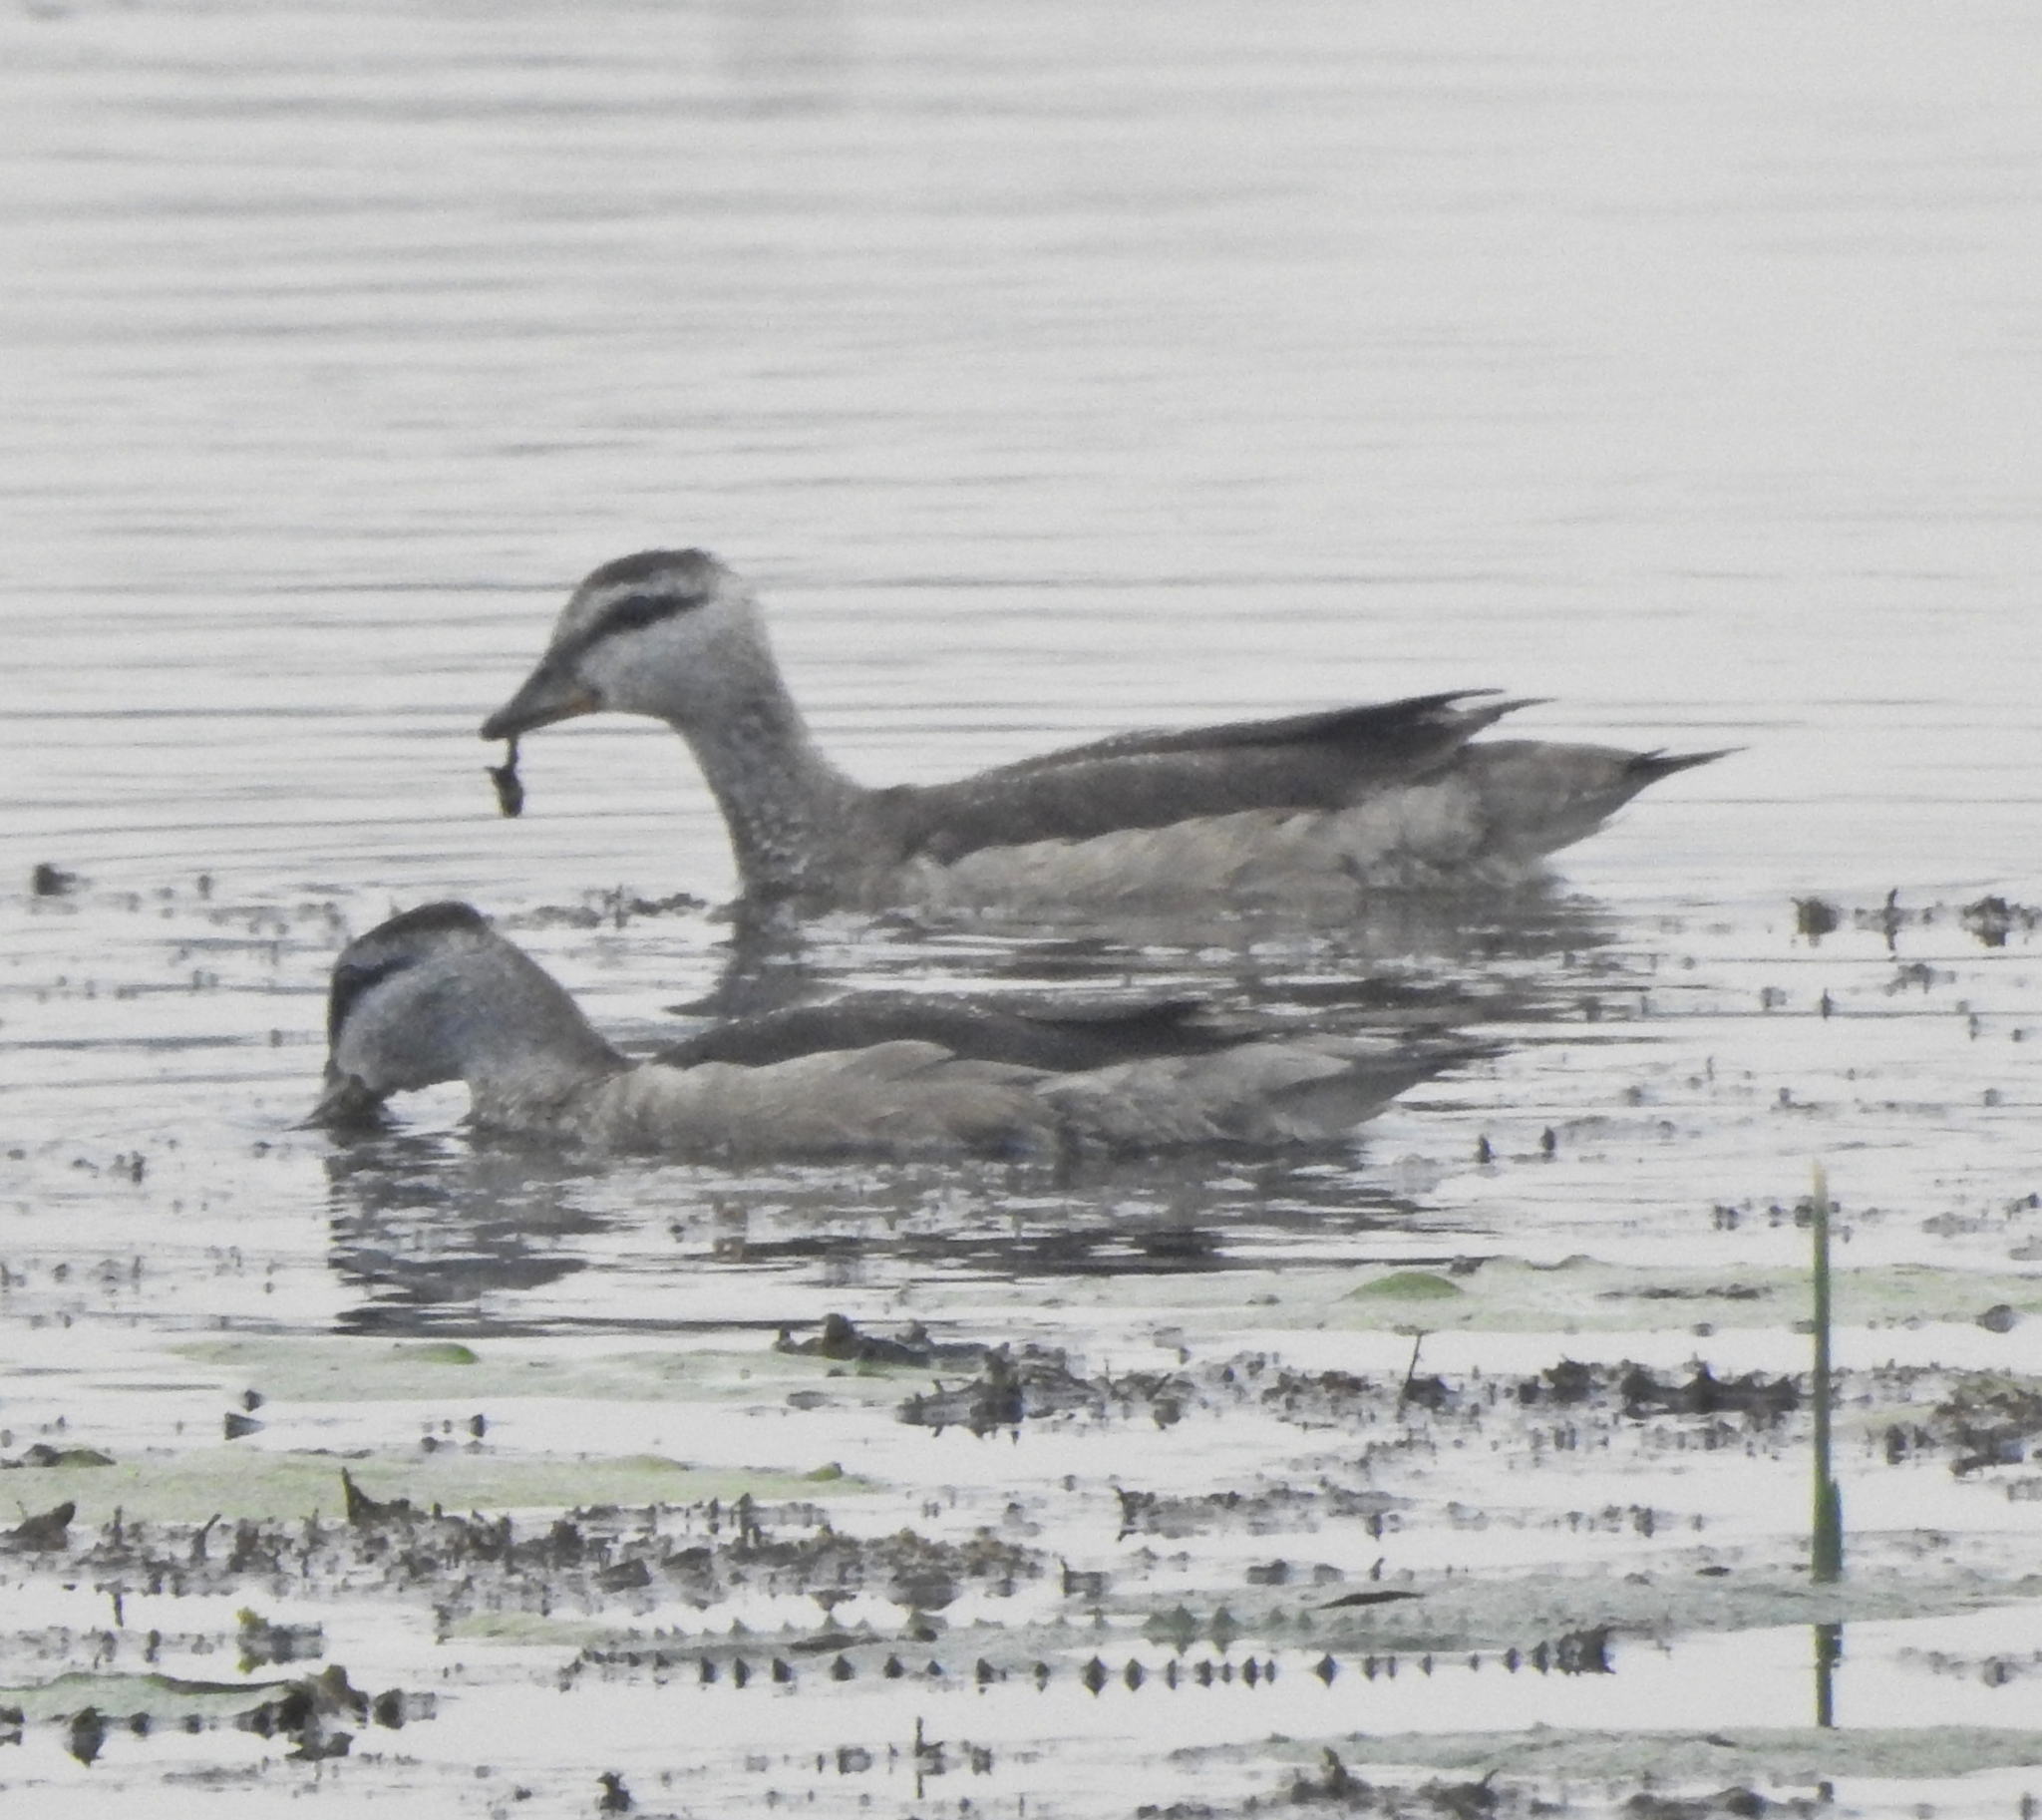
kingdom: Animalia
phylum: Chordata
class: Aves
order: Anseriformes
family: Anatidae
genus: Nettapus
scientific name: Nettapus coromandelianus
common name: Cotton pygmy-goose
